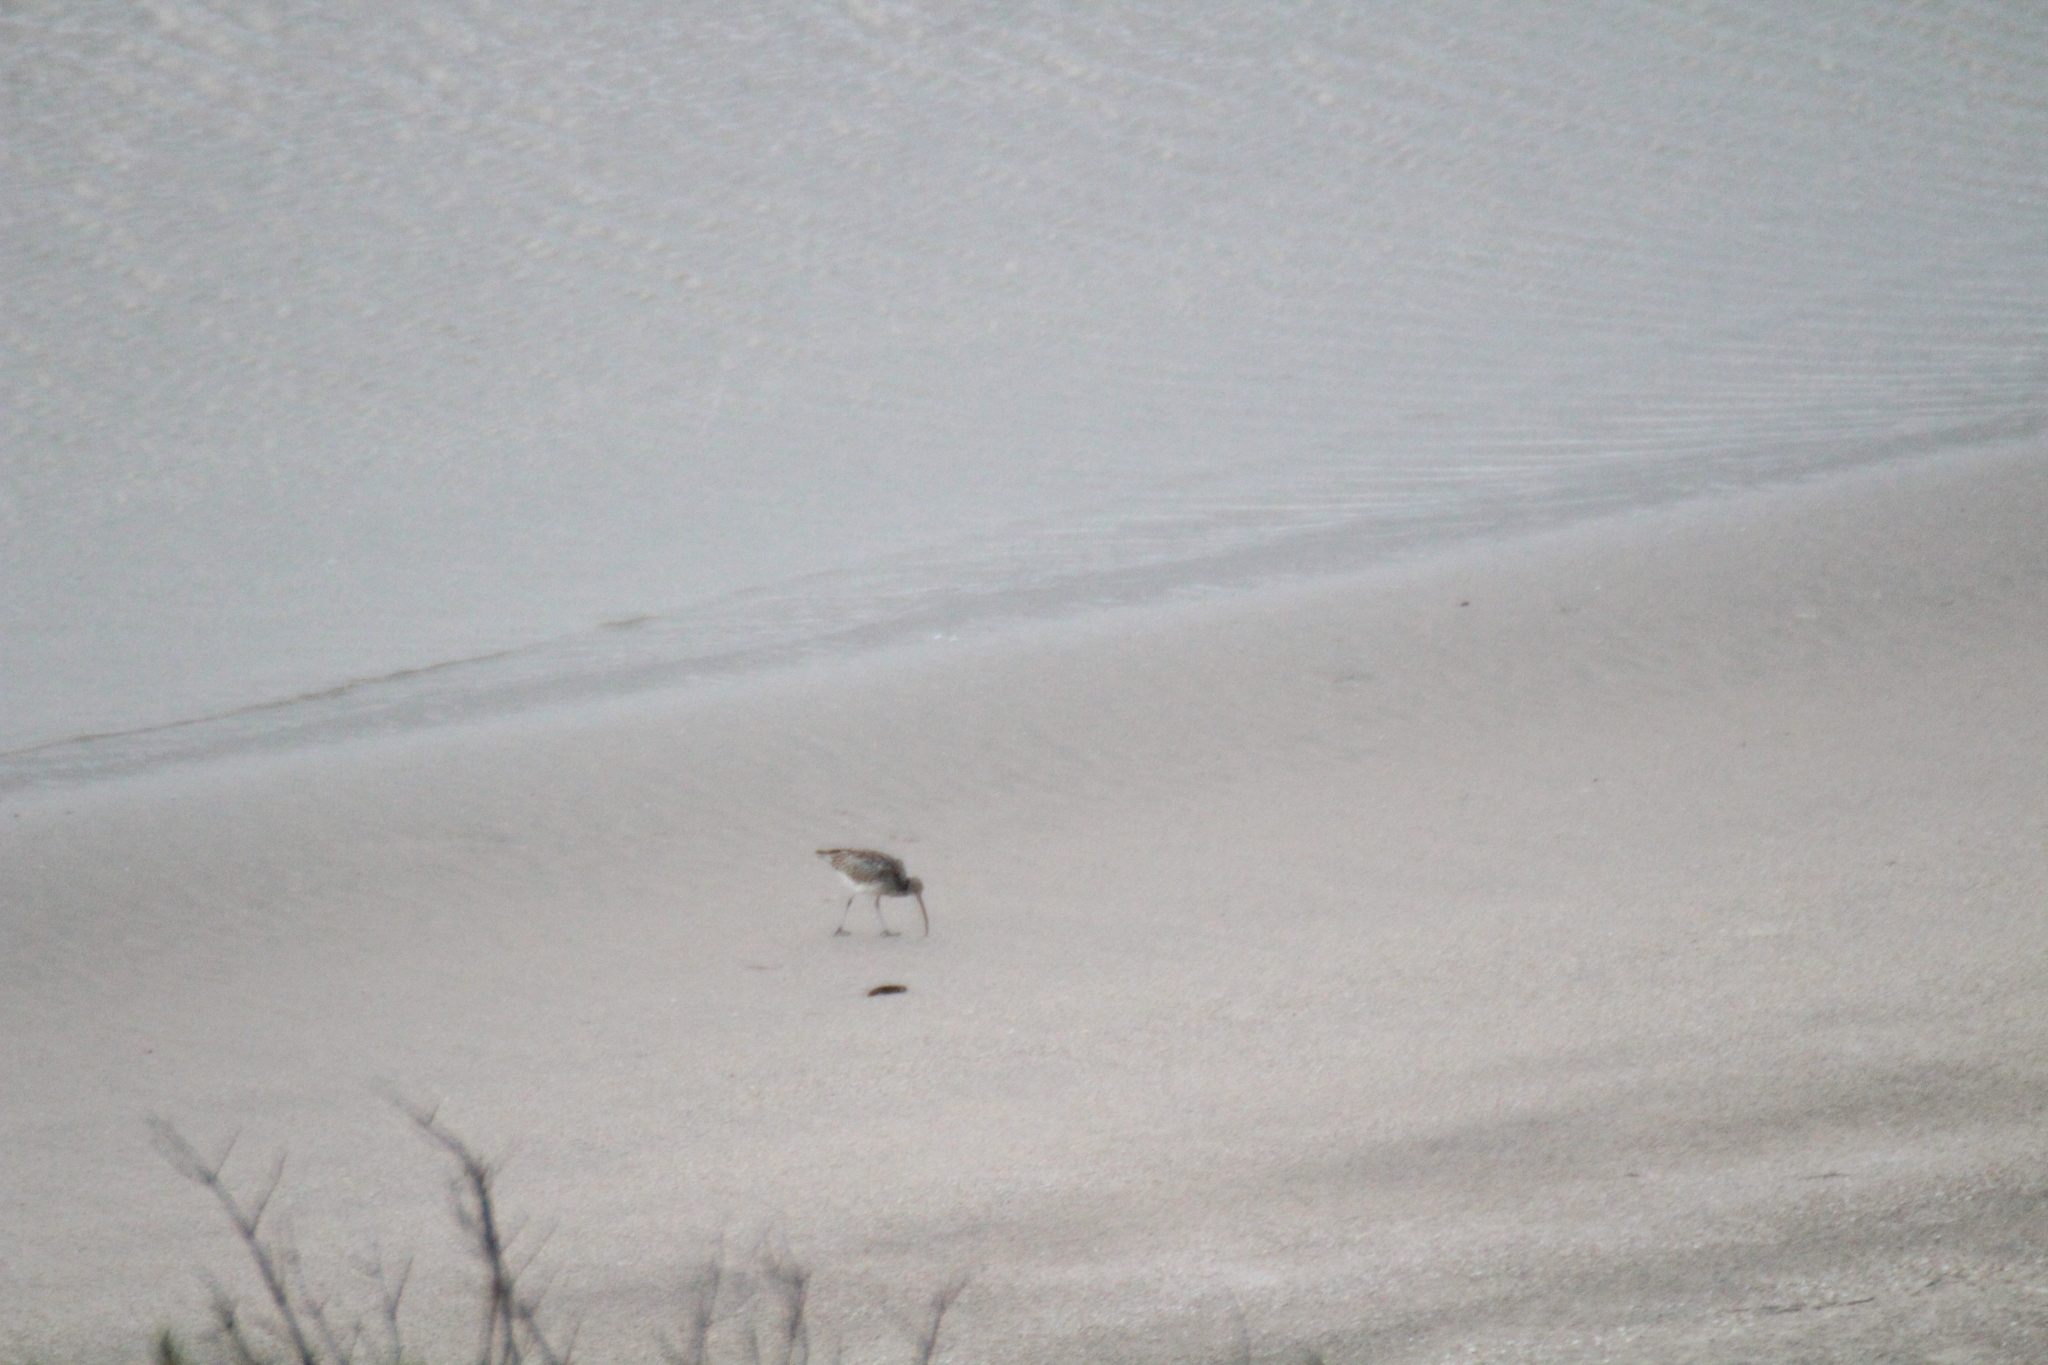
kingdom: Animalia
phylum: Chordata
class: Aves
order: Charadriiformes
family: Scolopacidae
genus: Numenius
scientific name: Numenius arquata
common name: Eurasian curlew
